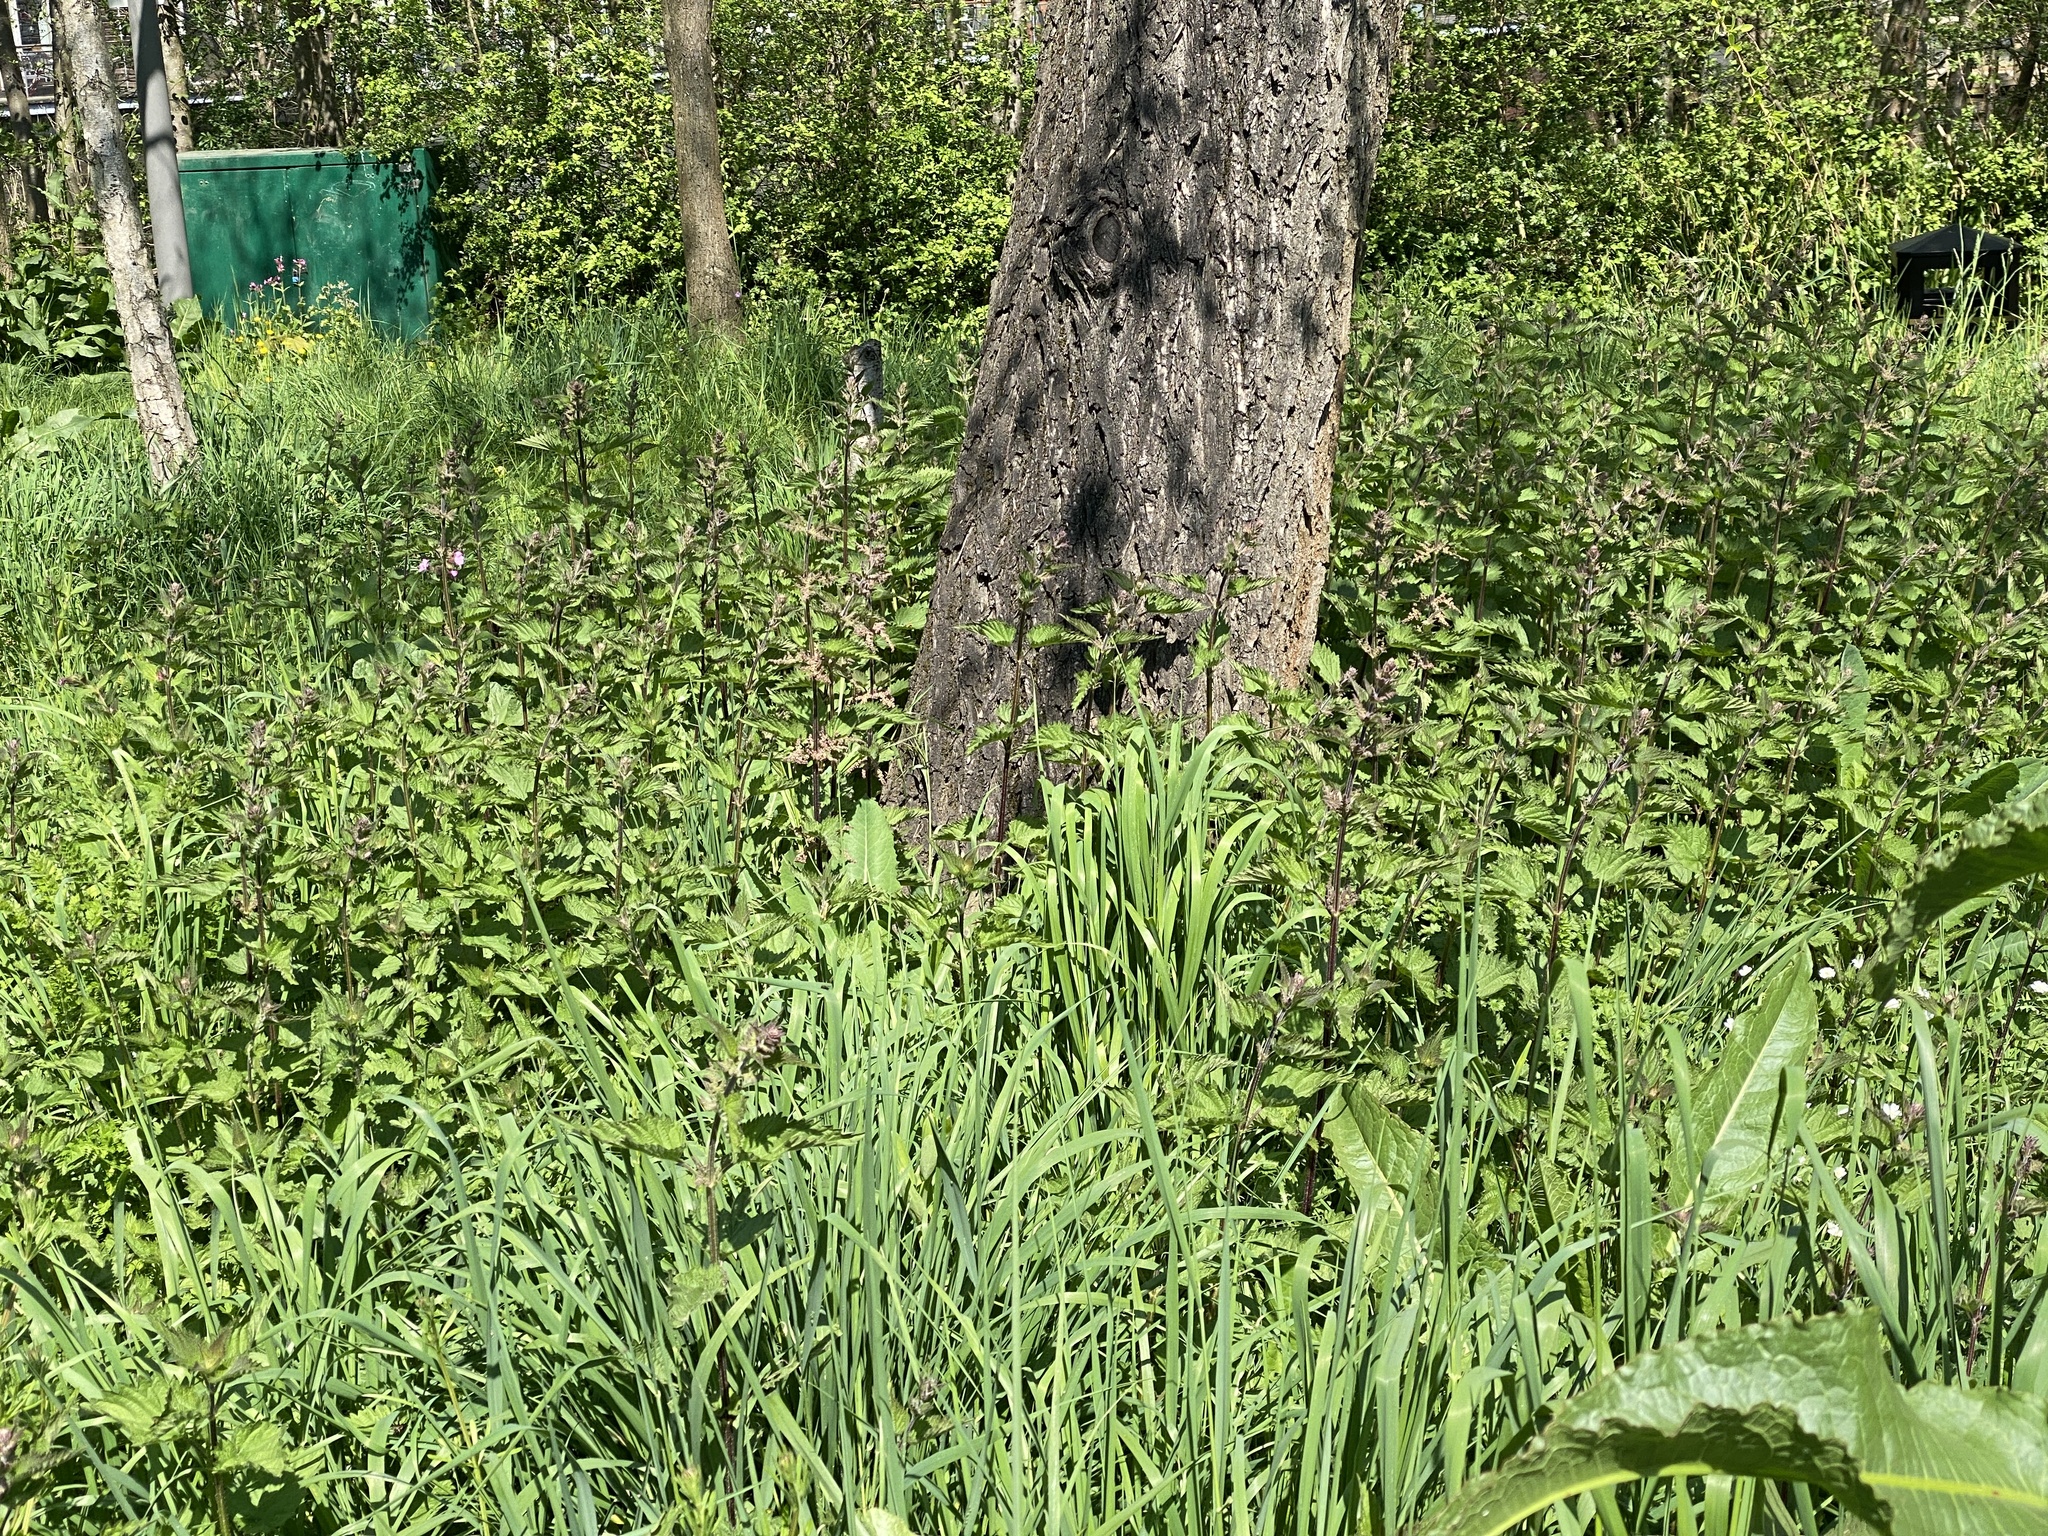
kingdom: Plantae
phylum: Tracheophyta
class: Magnoliopsida
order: Rosales
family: Urticaceae
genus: Urtica
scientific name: Urtica dioica
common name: Common nettle
